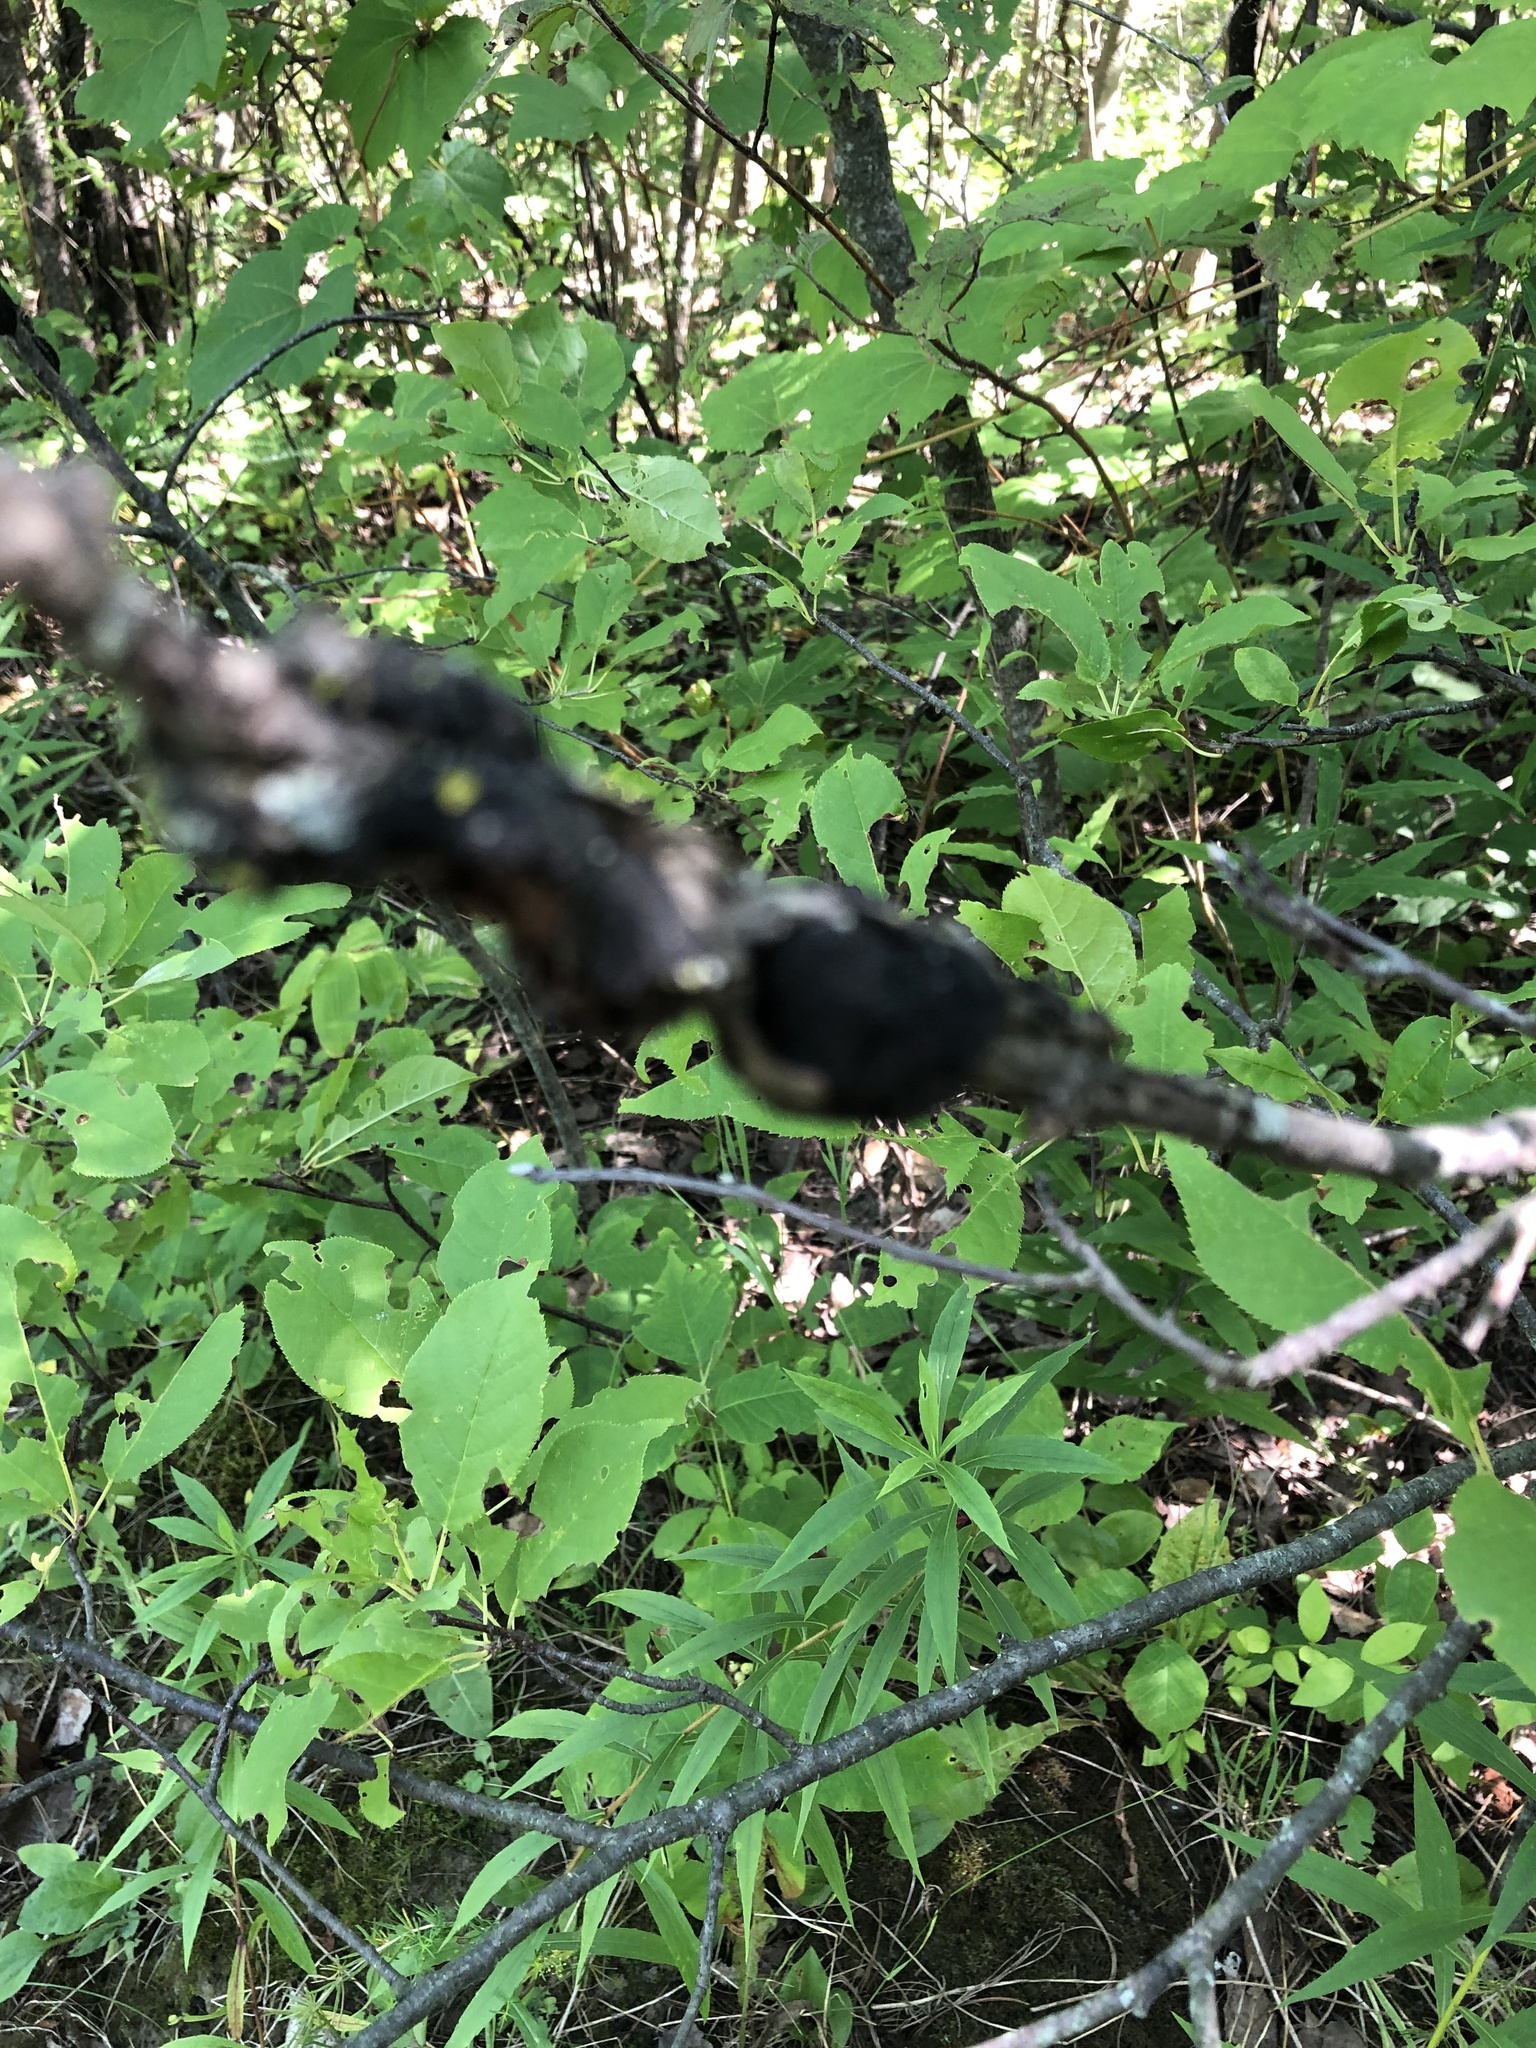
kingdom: Fungi
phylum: Ascomycota
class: Dothideomycetes
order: Venturiales
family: Venturiaceae
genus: Apiosporina
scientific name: Apiosporina morbosa
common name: Black knot
